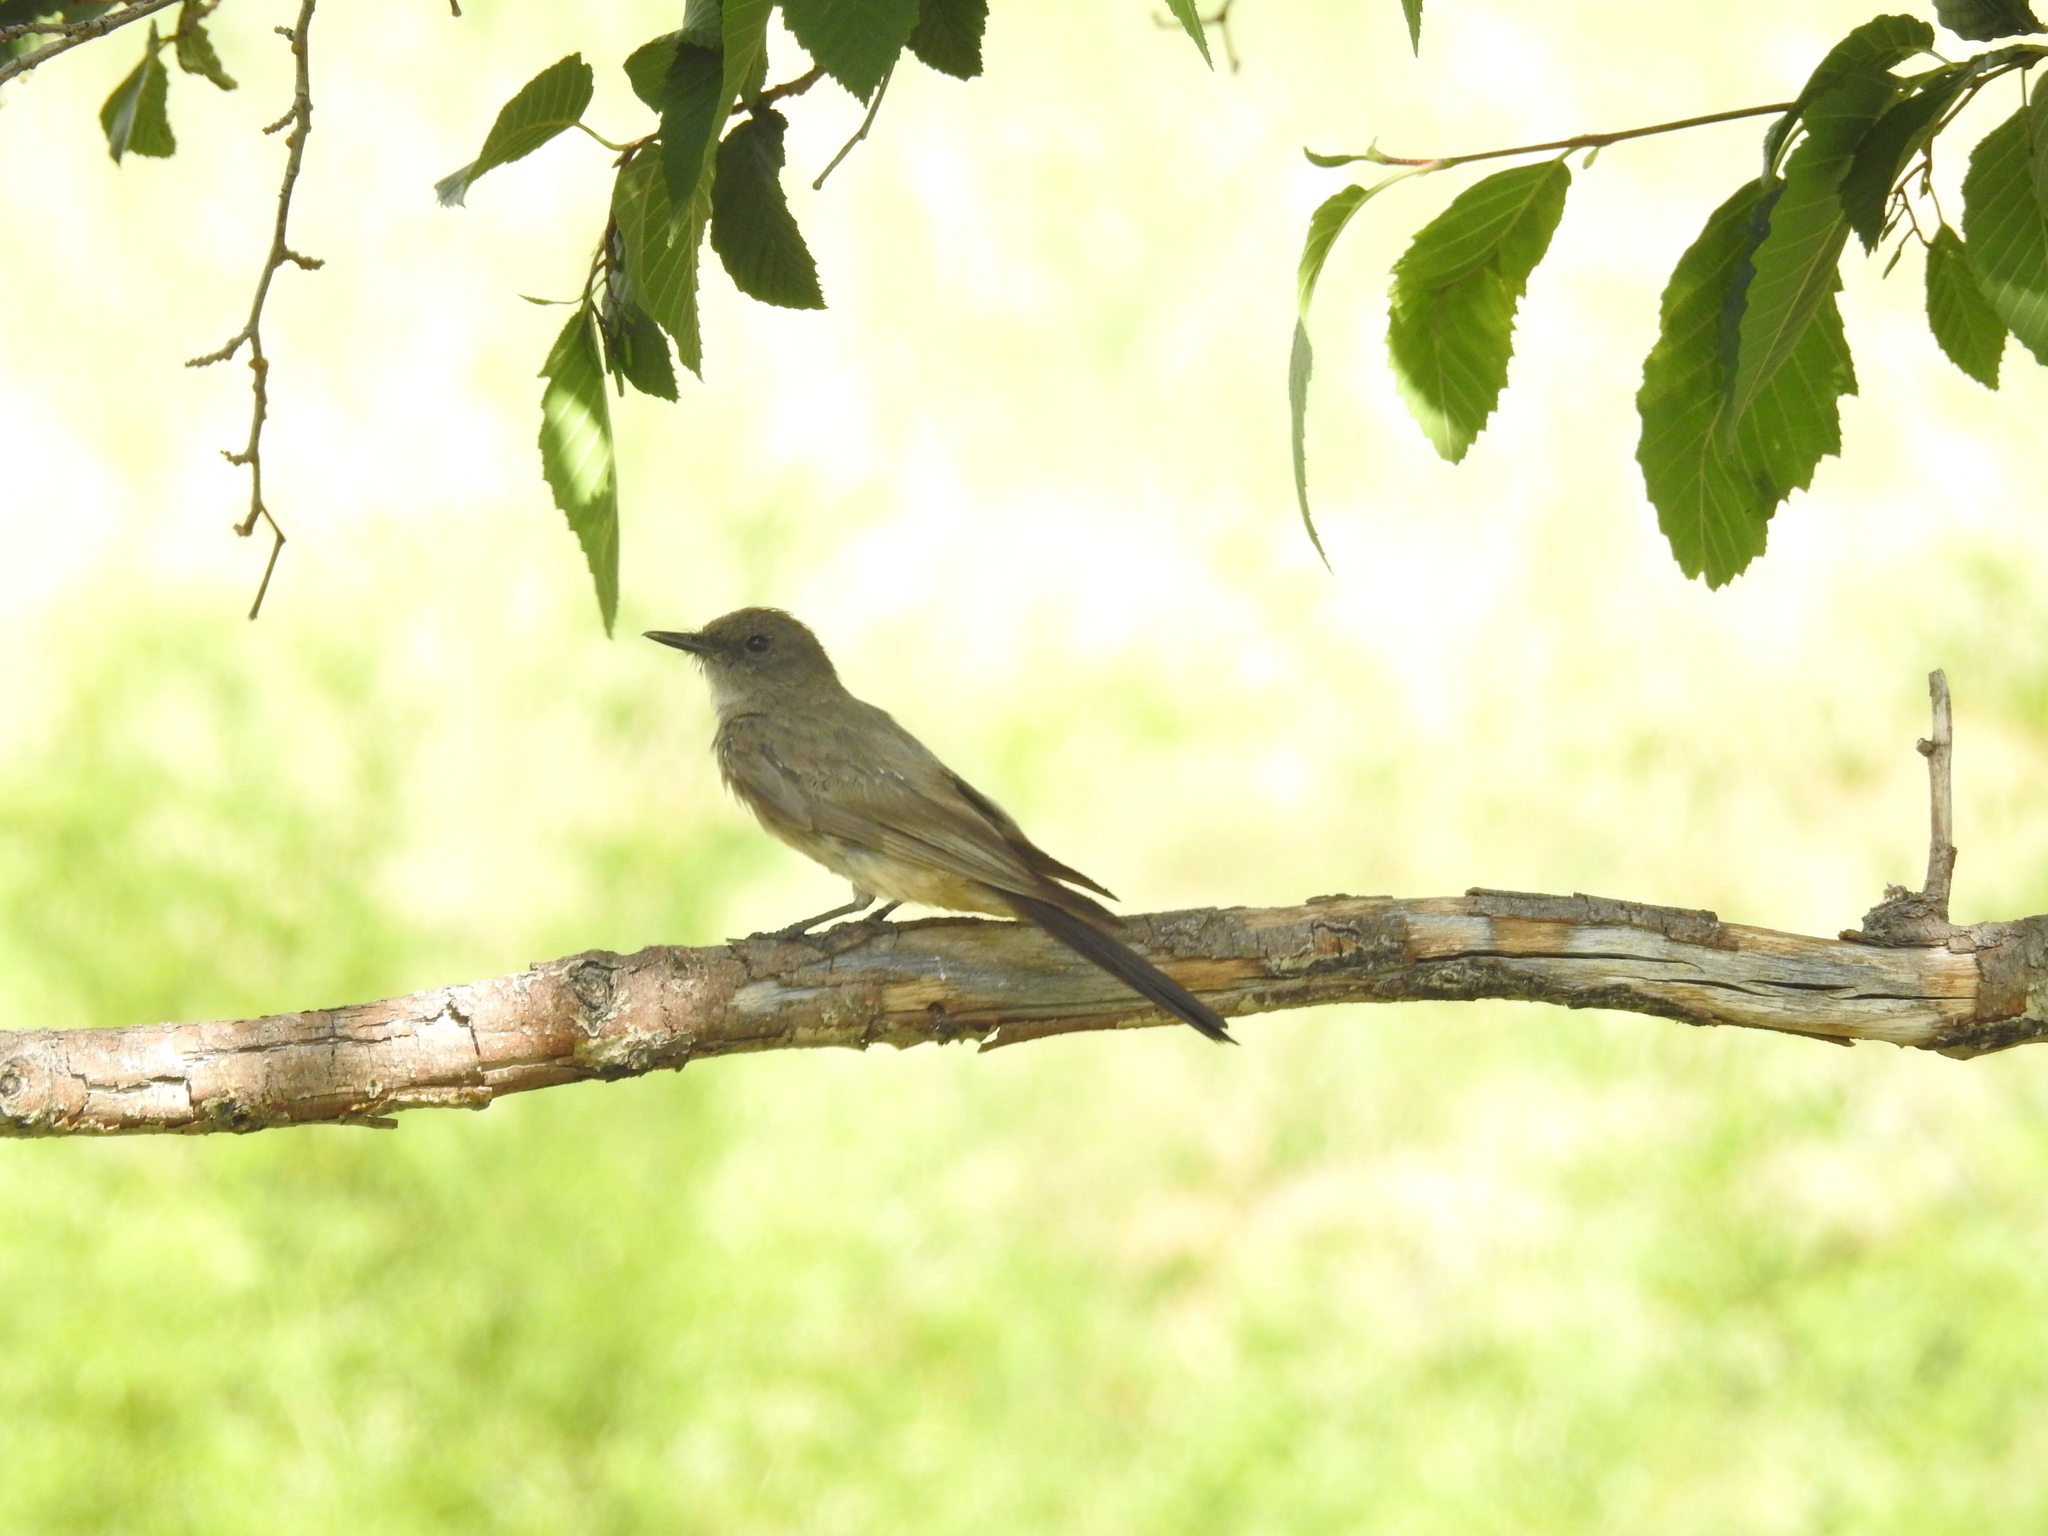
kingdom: Animalia
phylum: Chordata
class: Aves
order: Passeriformes
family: Tyrannidae
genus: Sayornis
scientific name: Sayornis saya
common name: Say's phoebe
